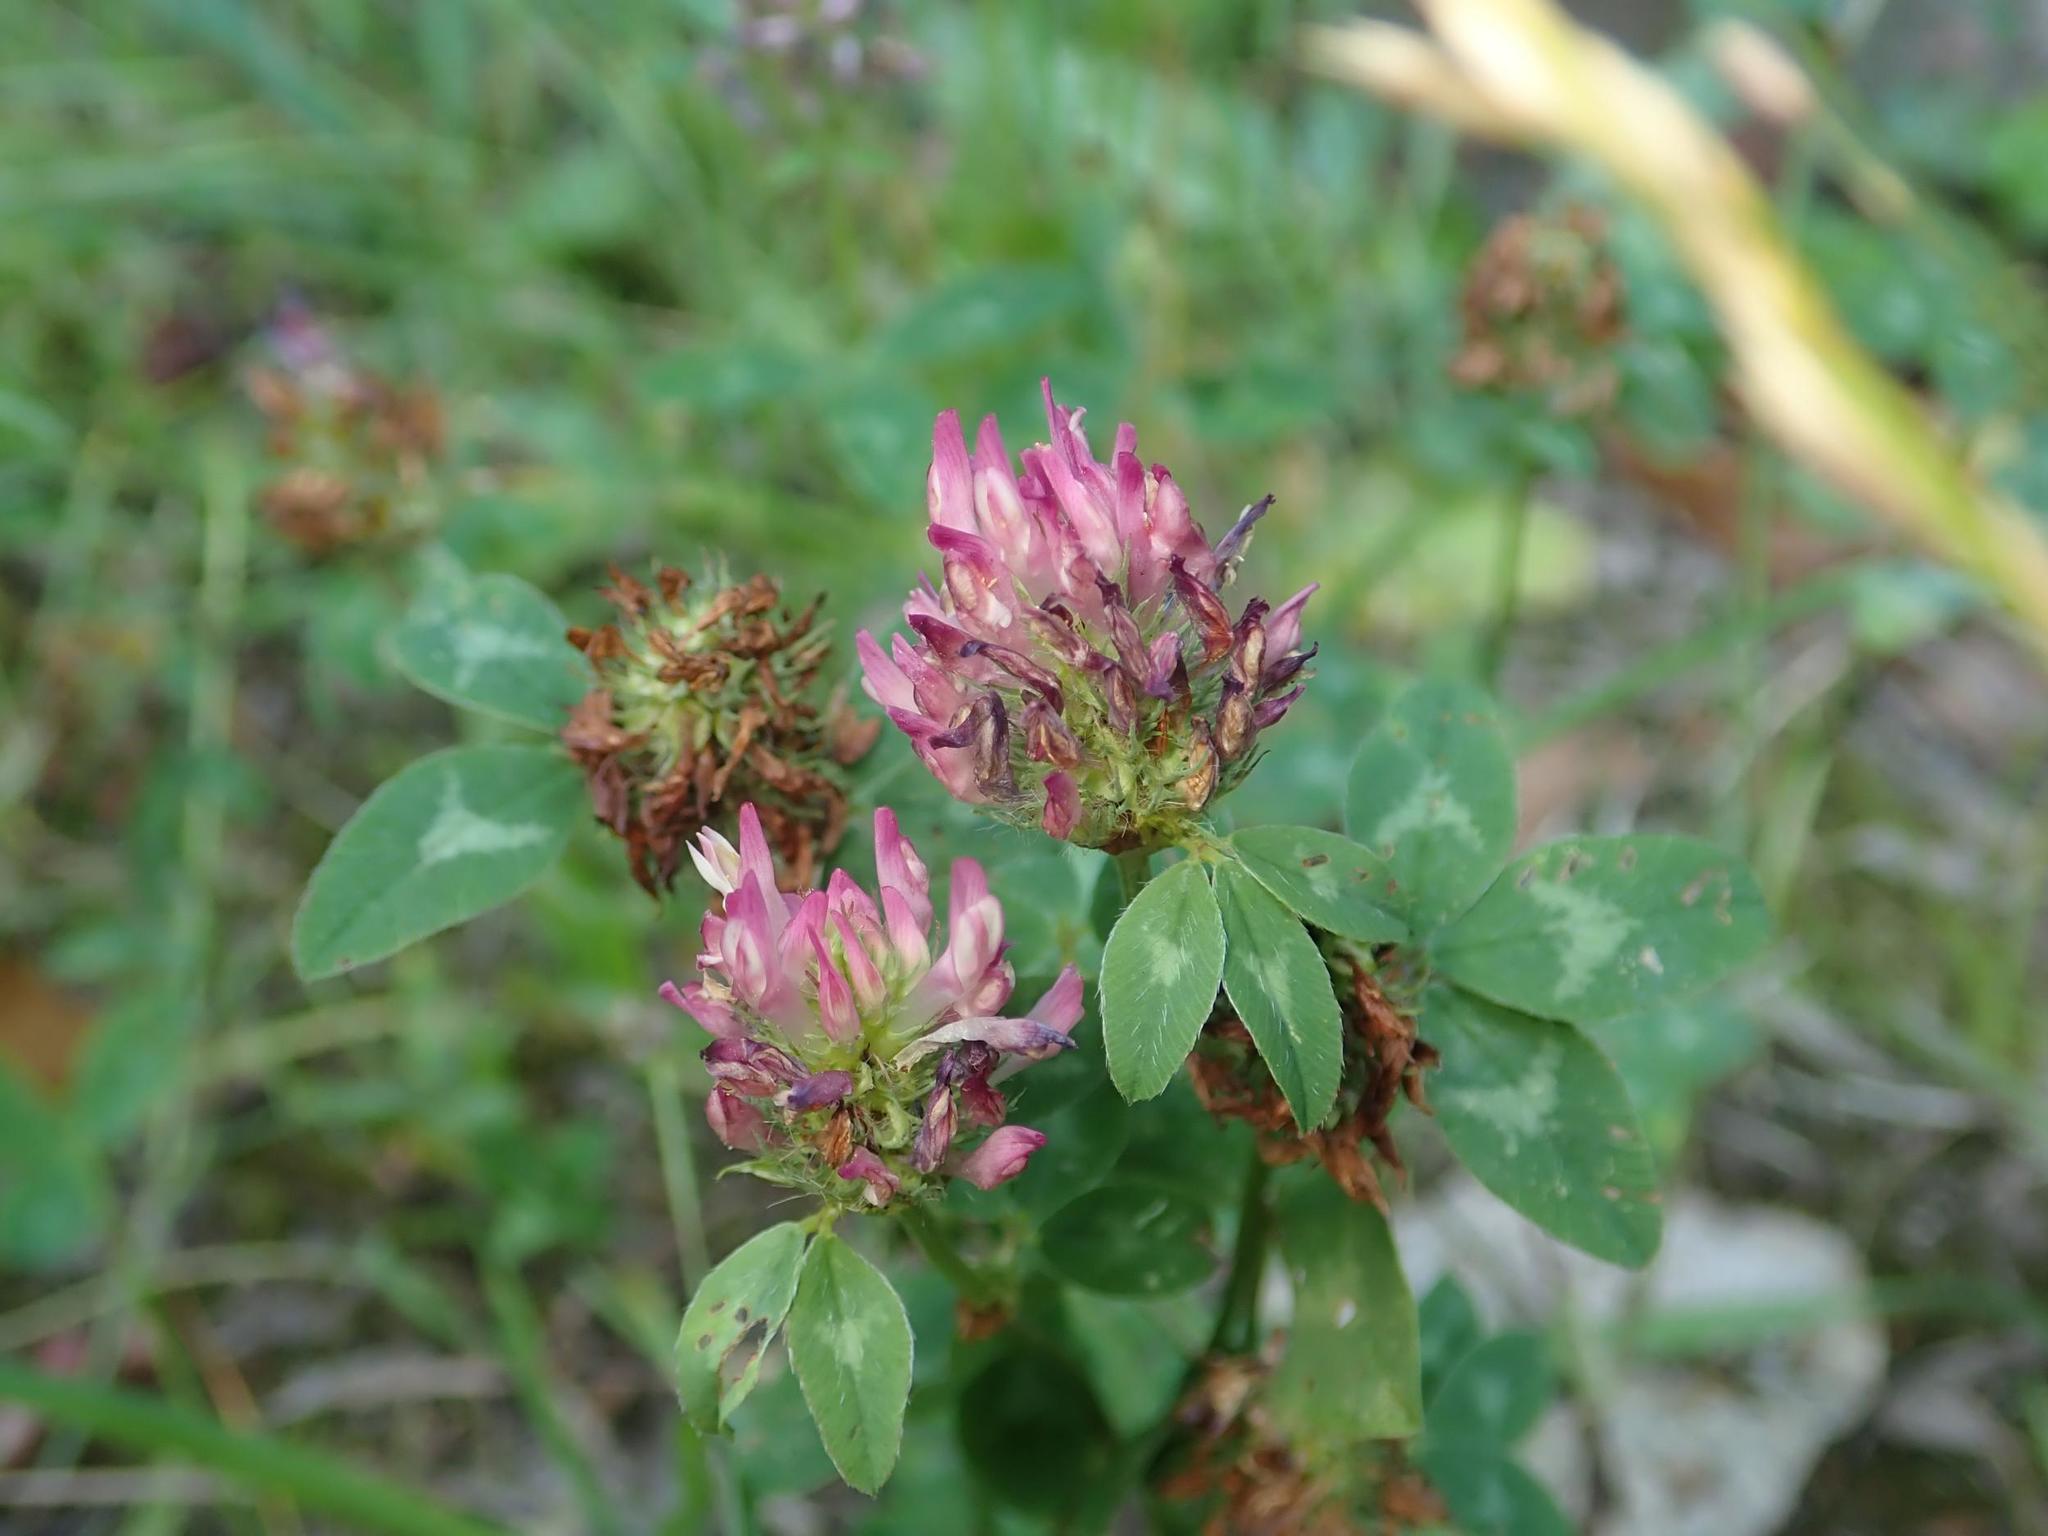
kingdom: Plantae
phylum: Tracheophyta
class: Magnoliopsida
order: Fabales
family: Fabaceae
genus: Trifolium
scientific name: Trifolium pratense
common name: Red clover
